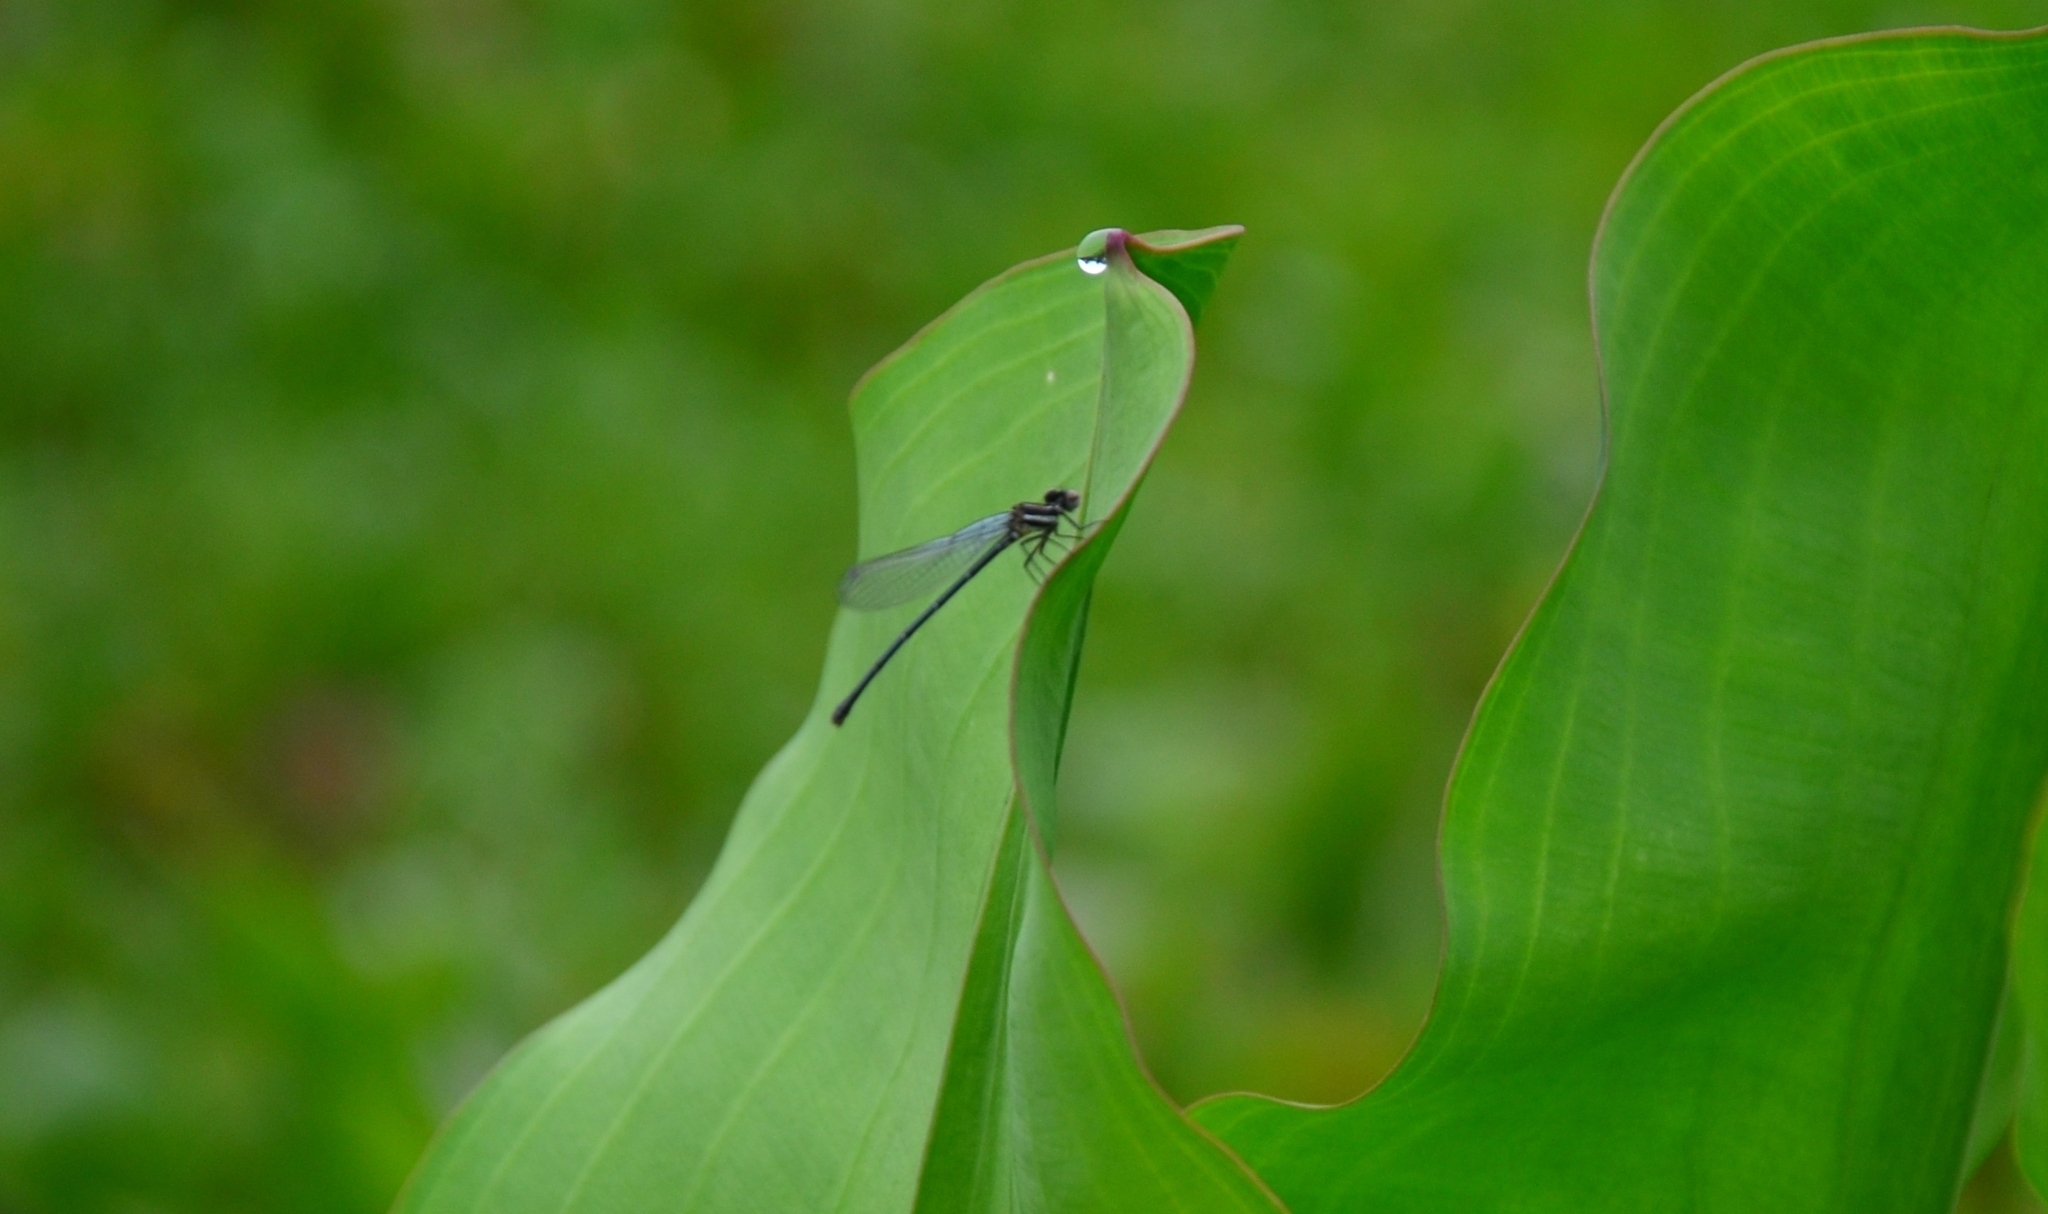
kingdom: Animalia
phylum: Arthropoda
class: Insecta
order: Odonata
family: Platycnemididae
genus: Onychargia
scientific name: Onychargia atrocyana
